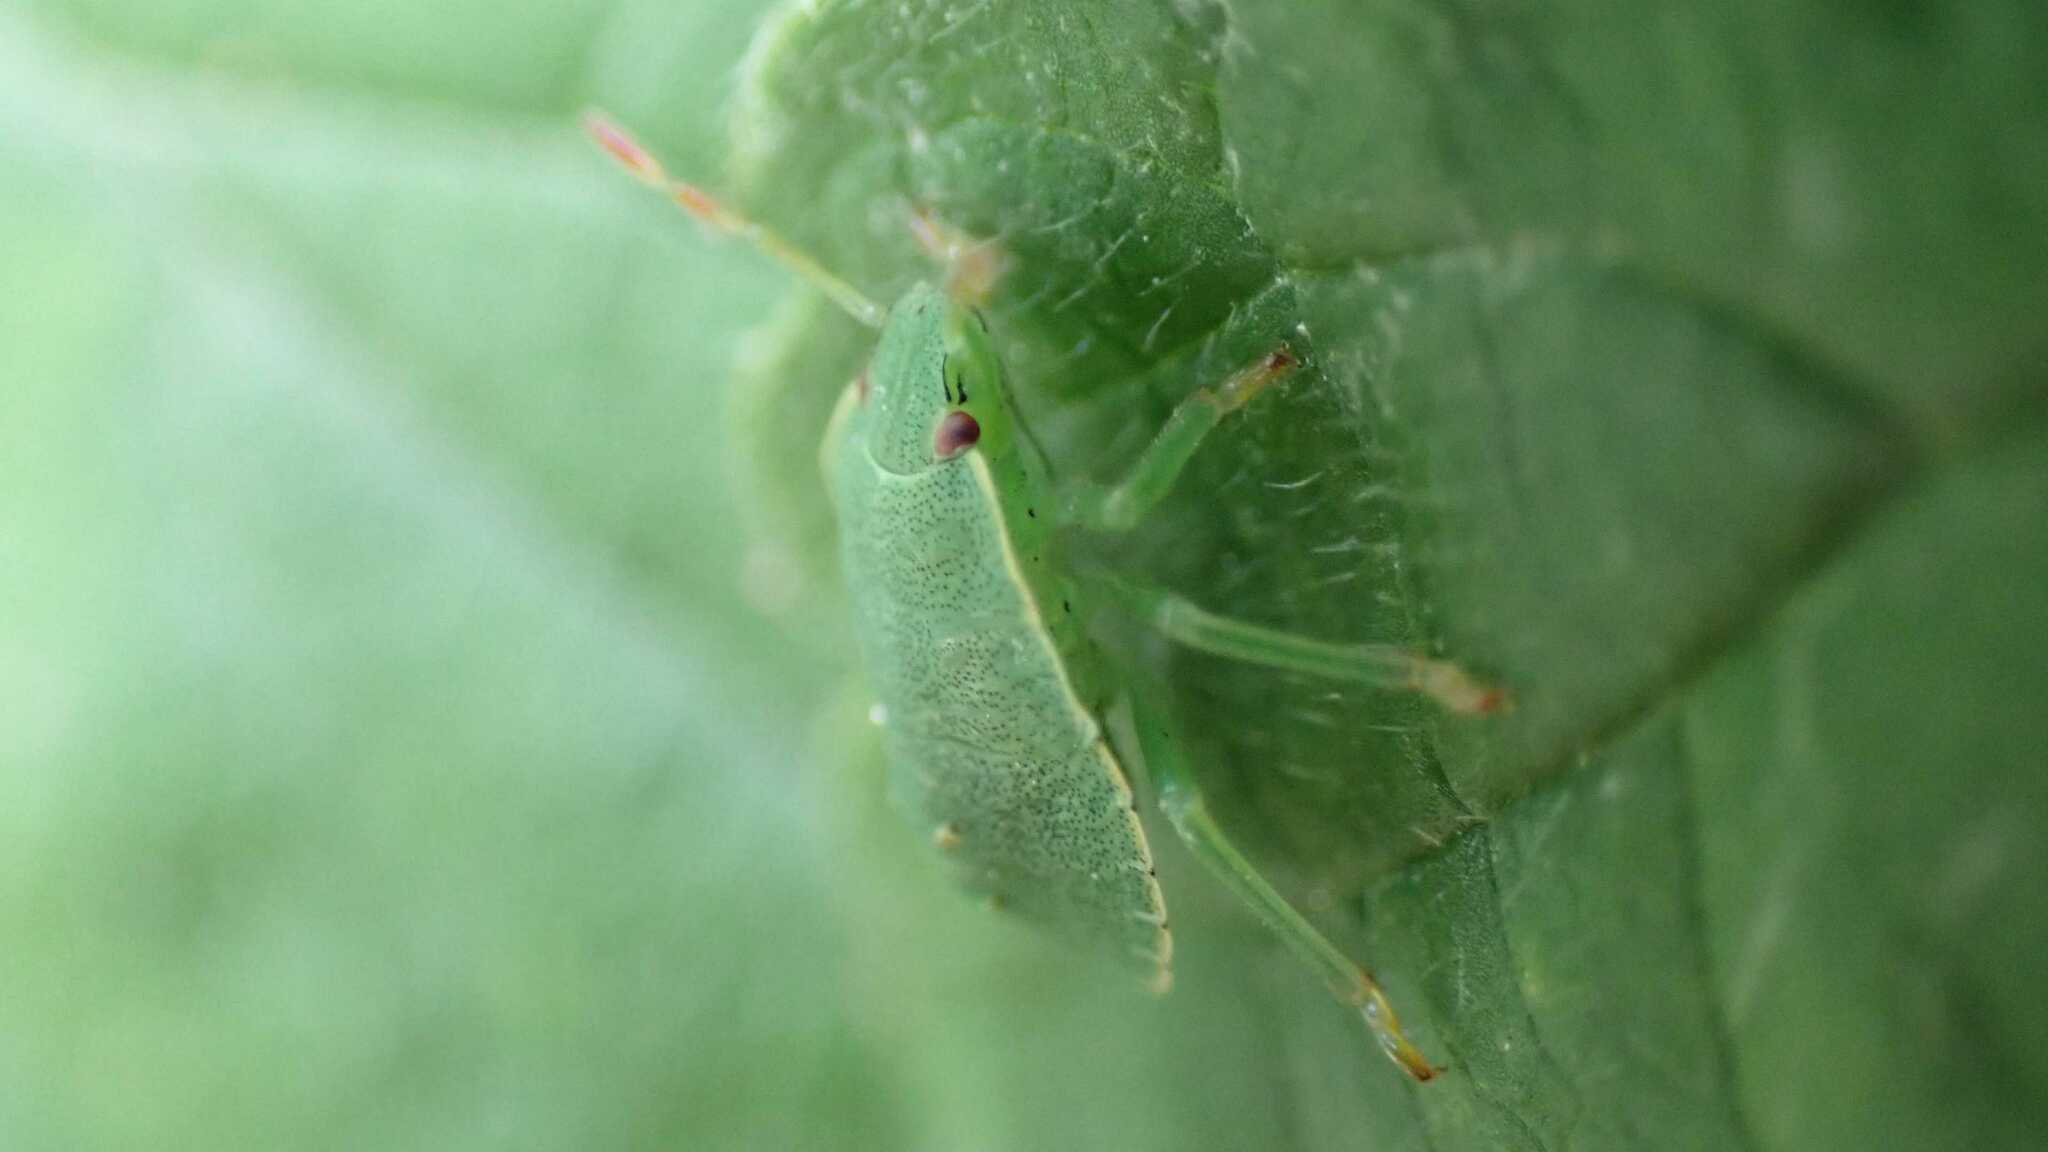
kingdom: Animalia
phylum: Arthropoda
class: Insecta
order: Hemiptera
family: Pentatomidae
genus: Palomena
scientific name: Palomena prasina
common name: Green shieldbug
